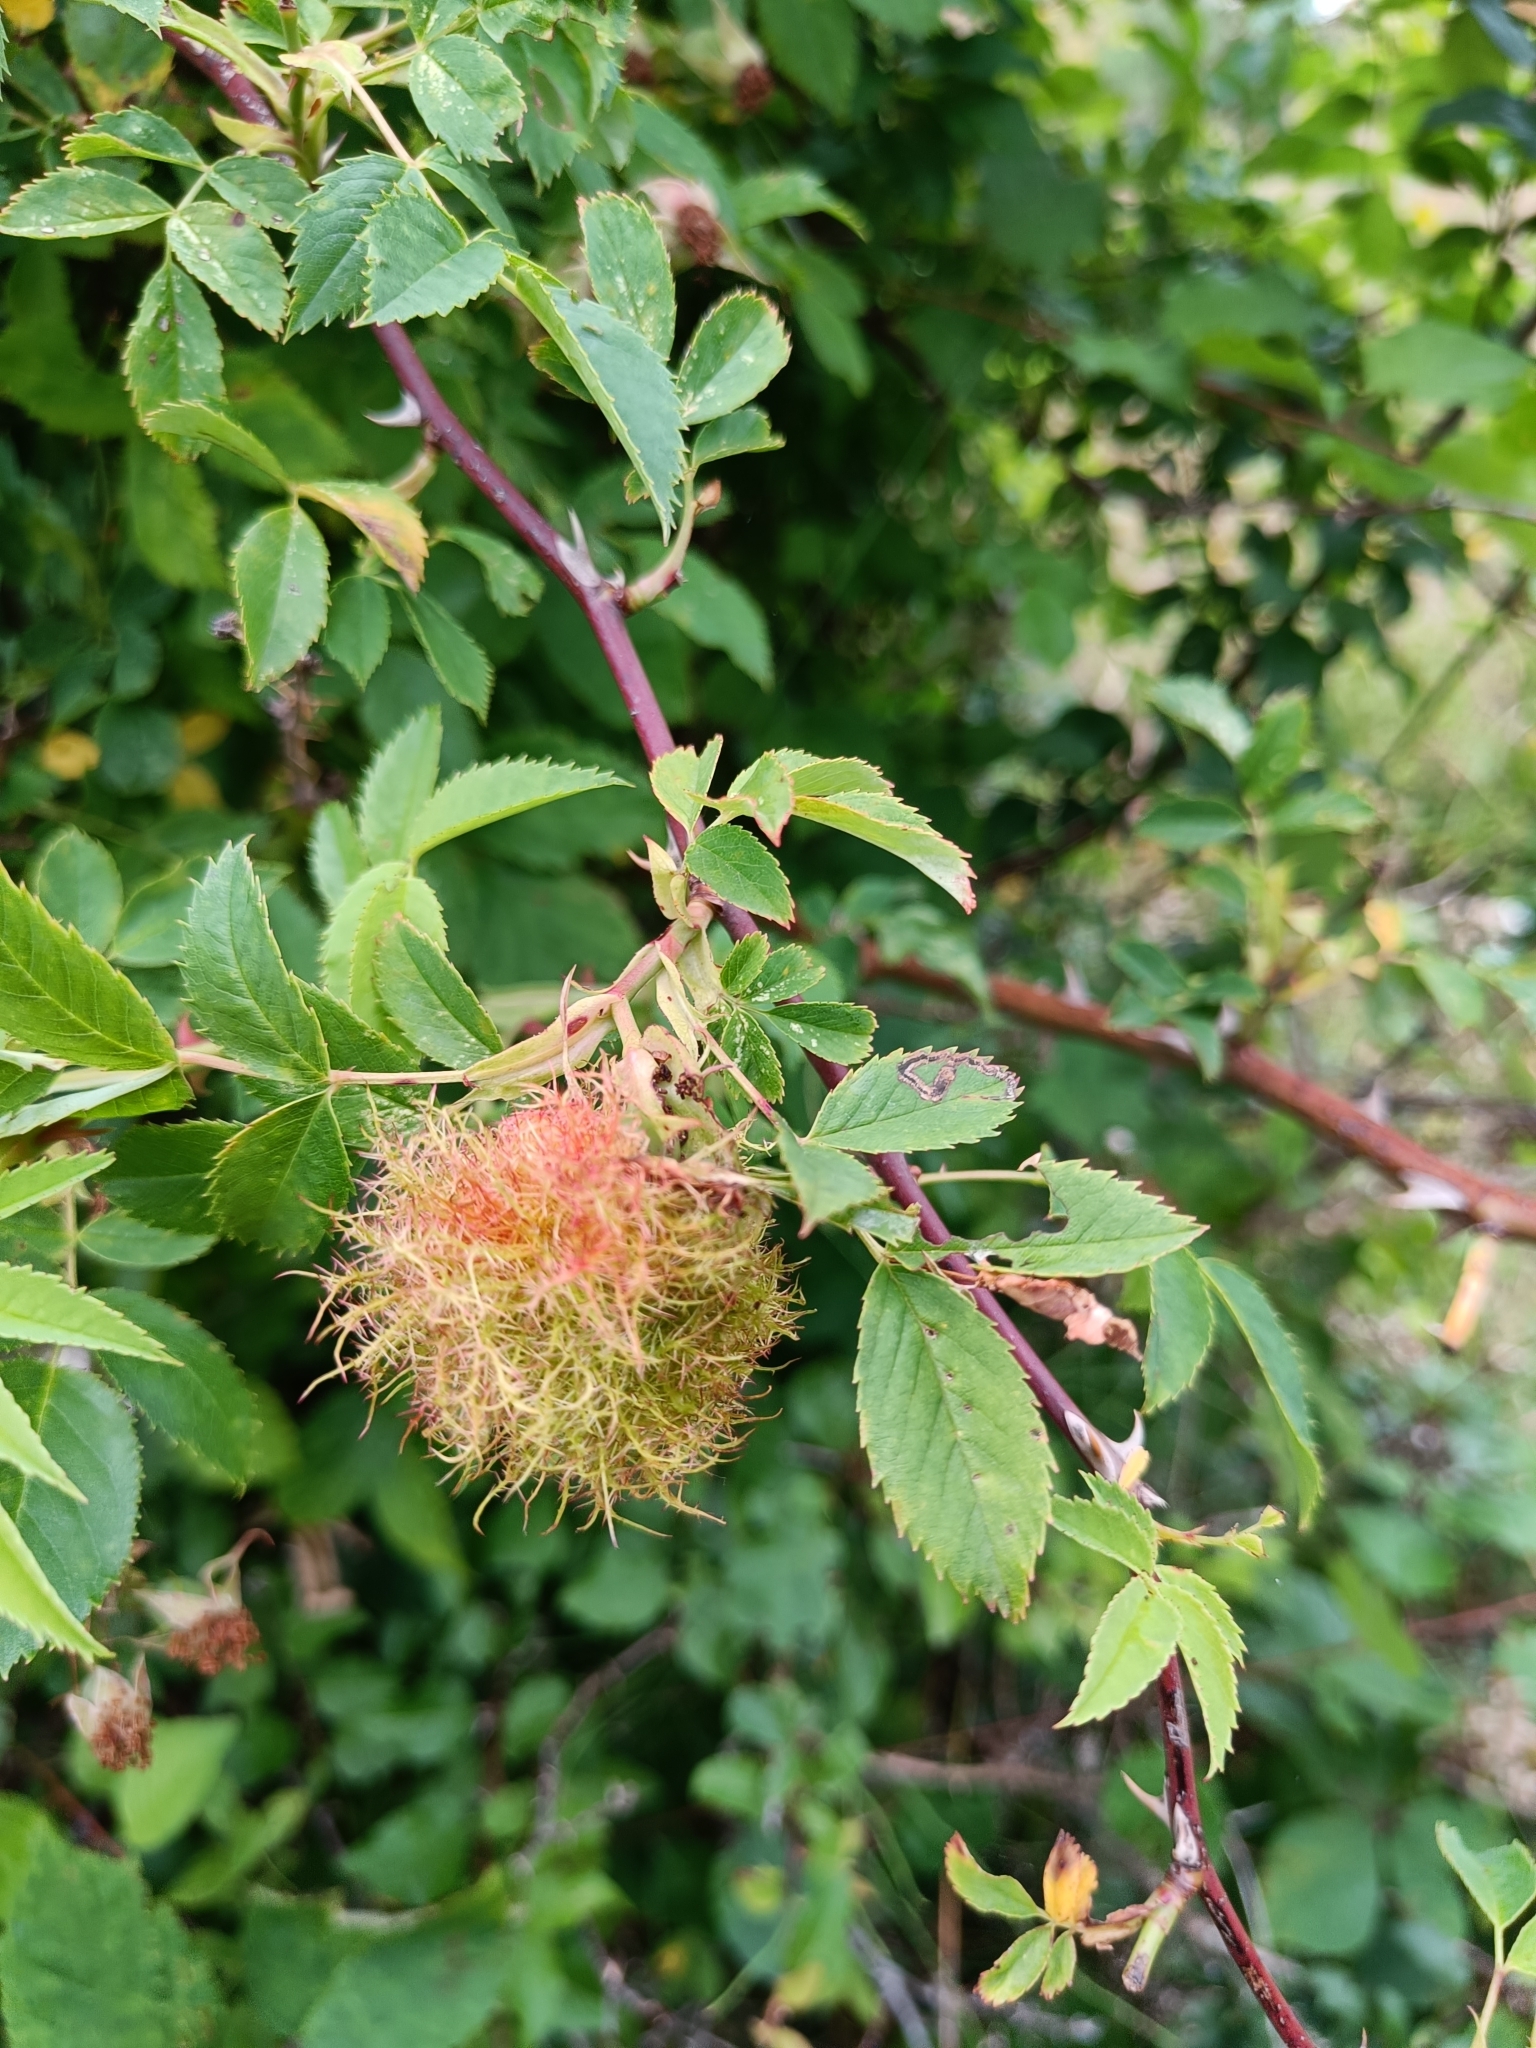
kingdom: Animalia
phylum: Arthropoda
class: Insecta
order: Hymenoptera
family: Cynipidae
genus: Diplolepis
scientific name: Diplolepis rosae
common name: Bedeguar gall
